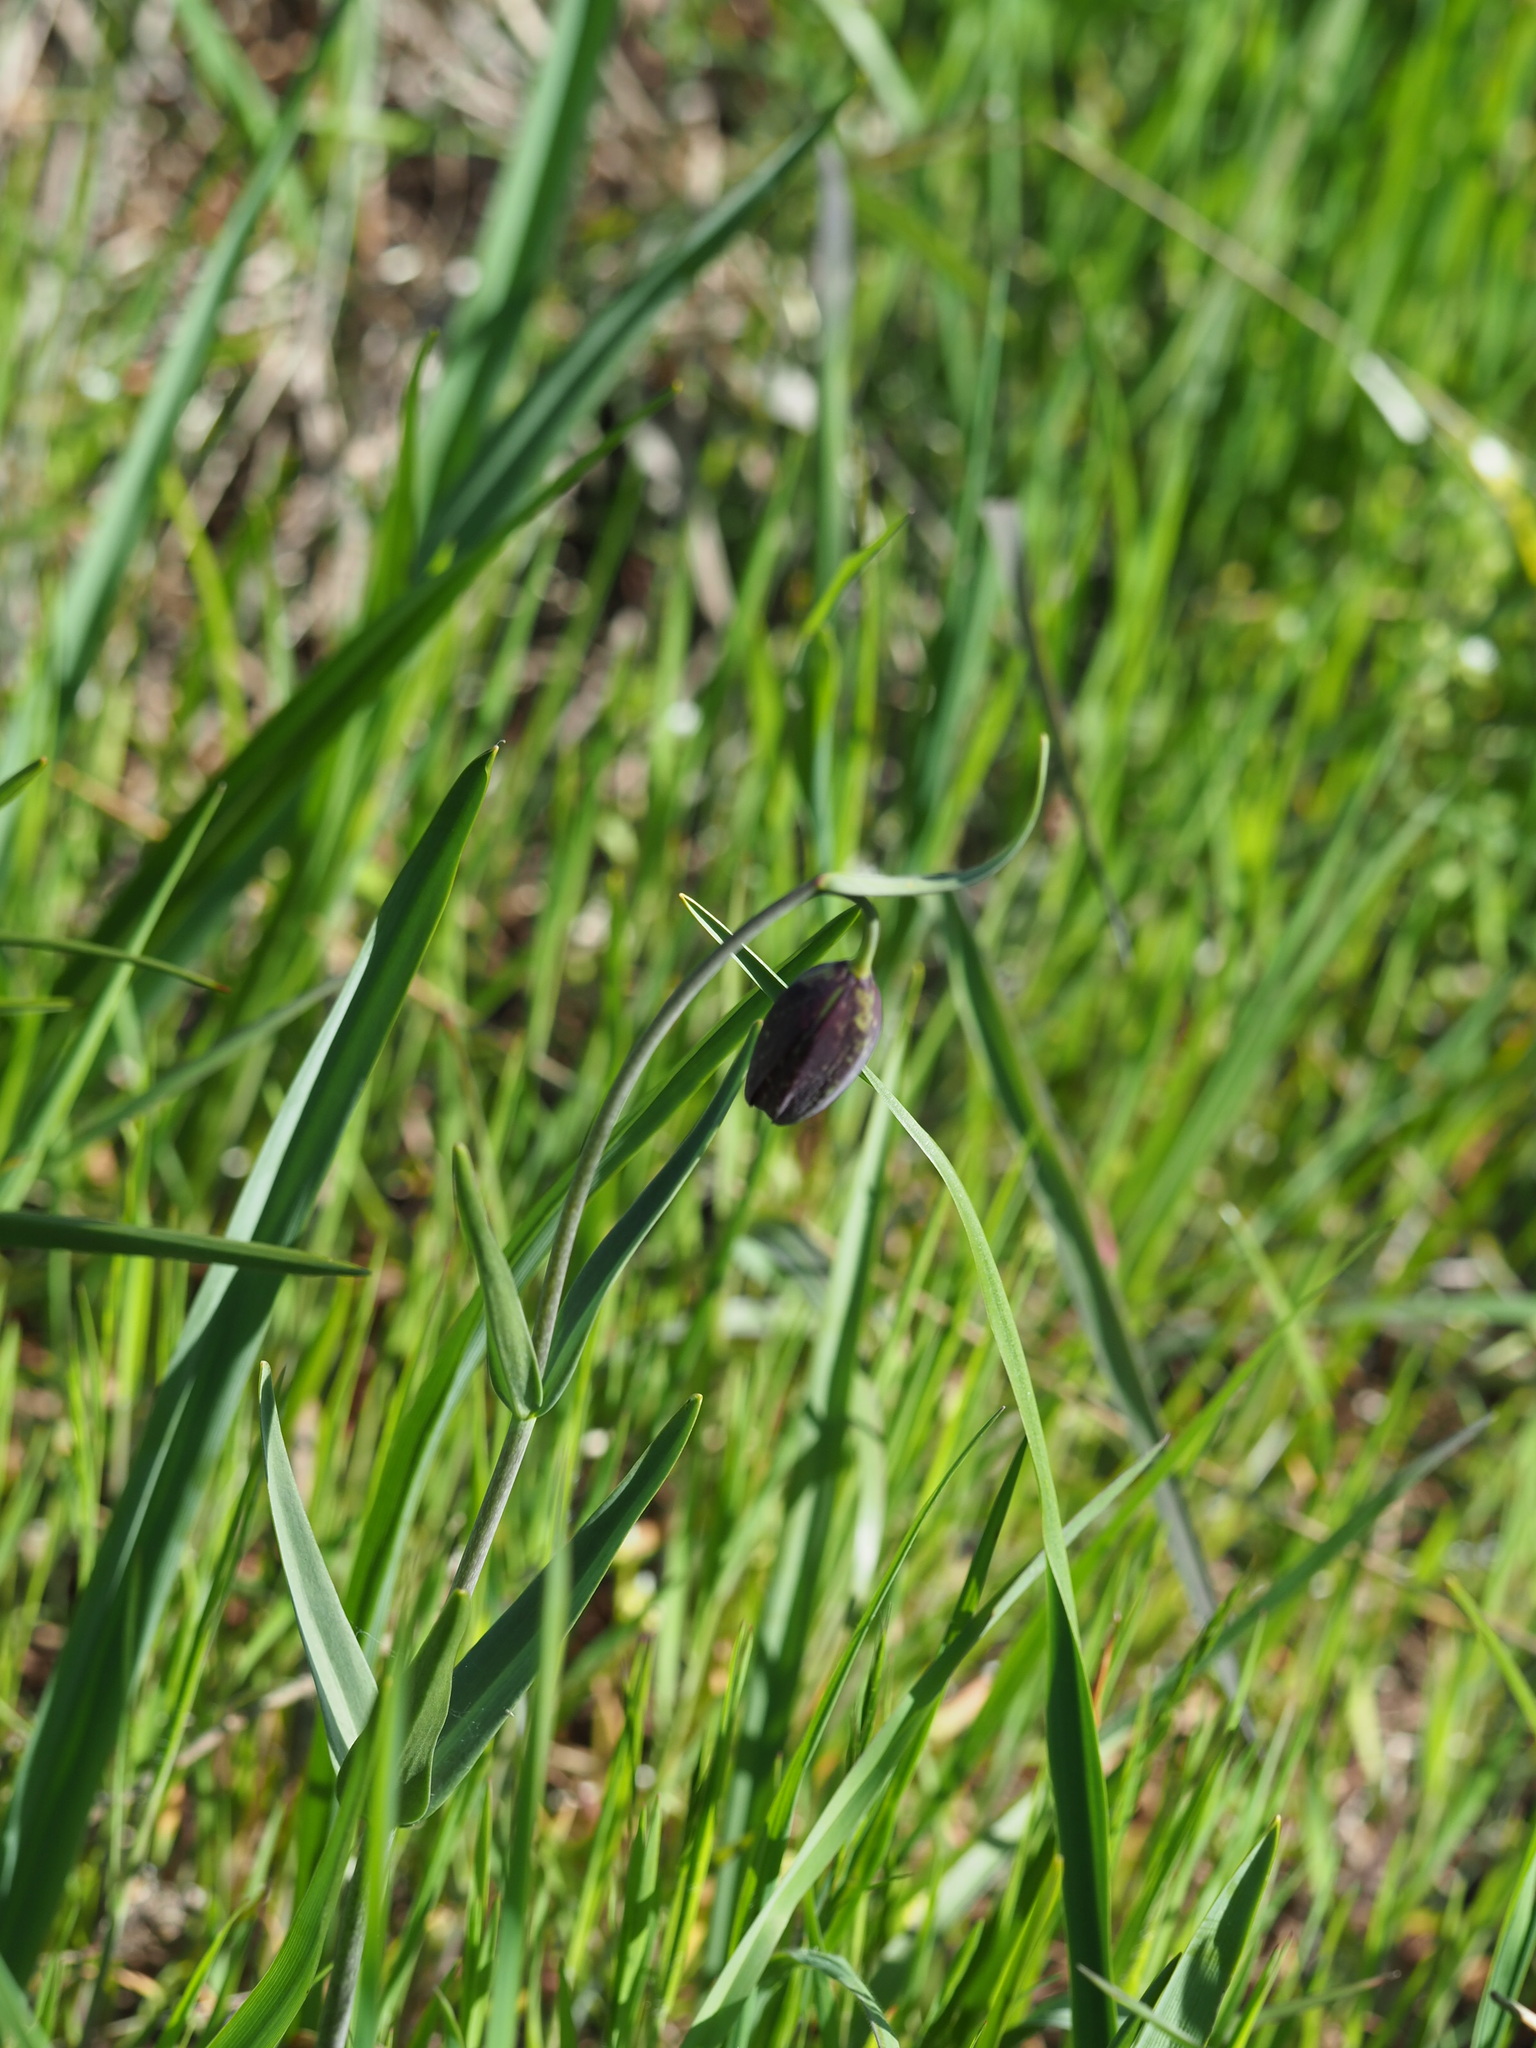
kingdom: Plantae
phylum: Tracheophyta
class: Liliopsida
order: Liliales
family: Liliaceae
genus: Fritillaria
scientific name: Fritillaria affinis
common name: Ojai fritillary
